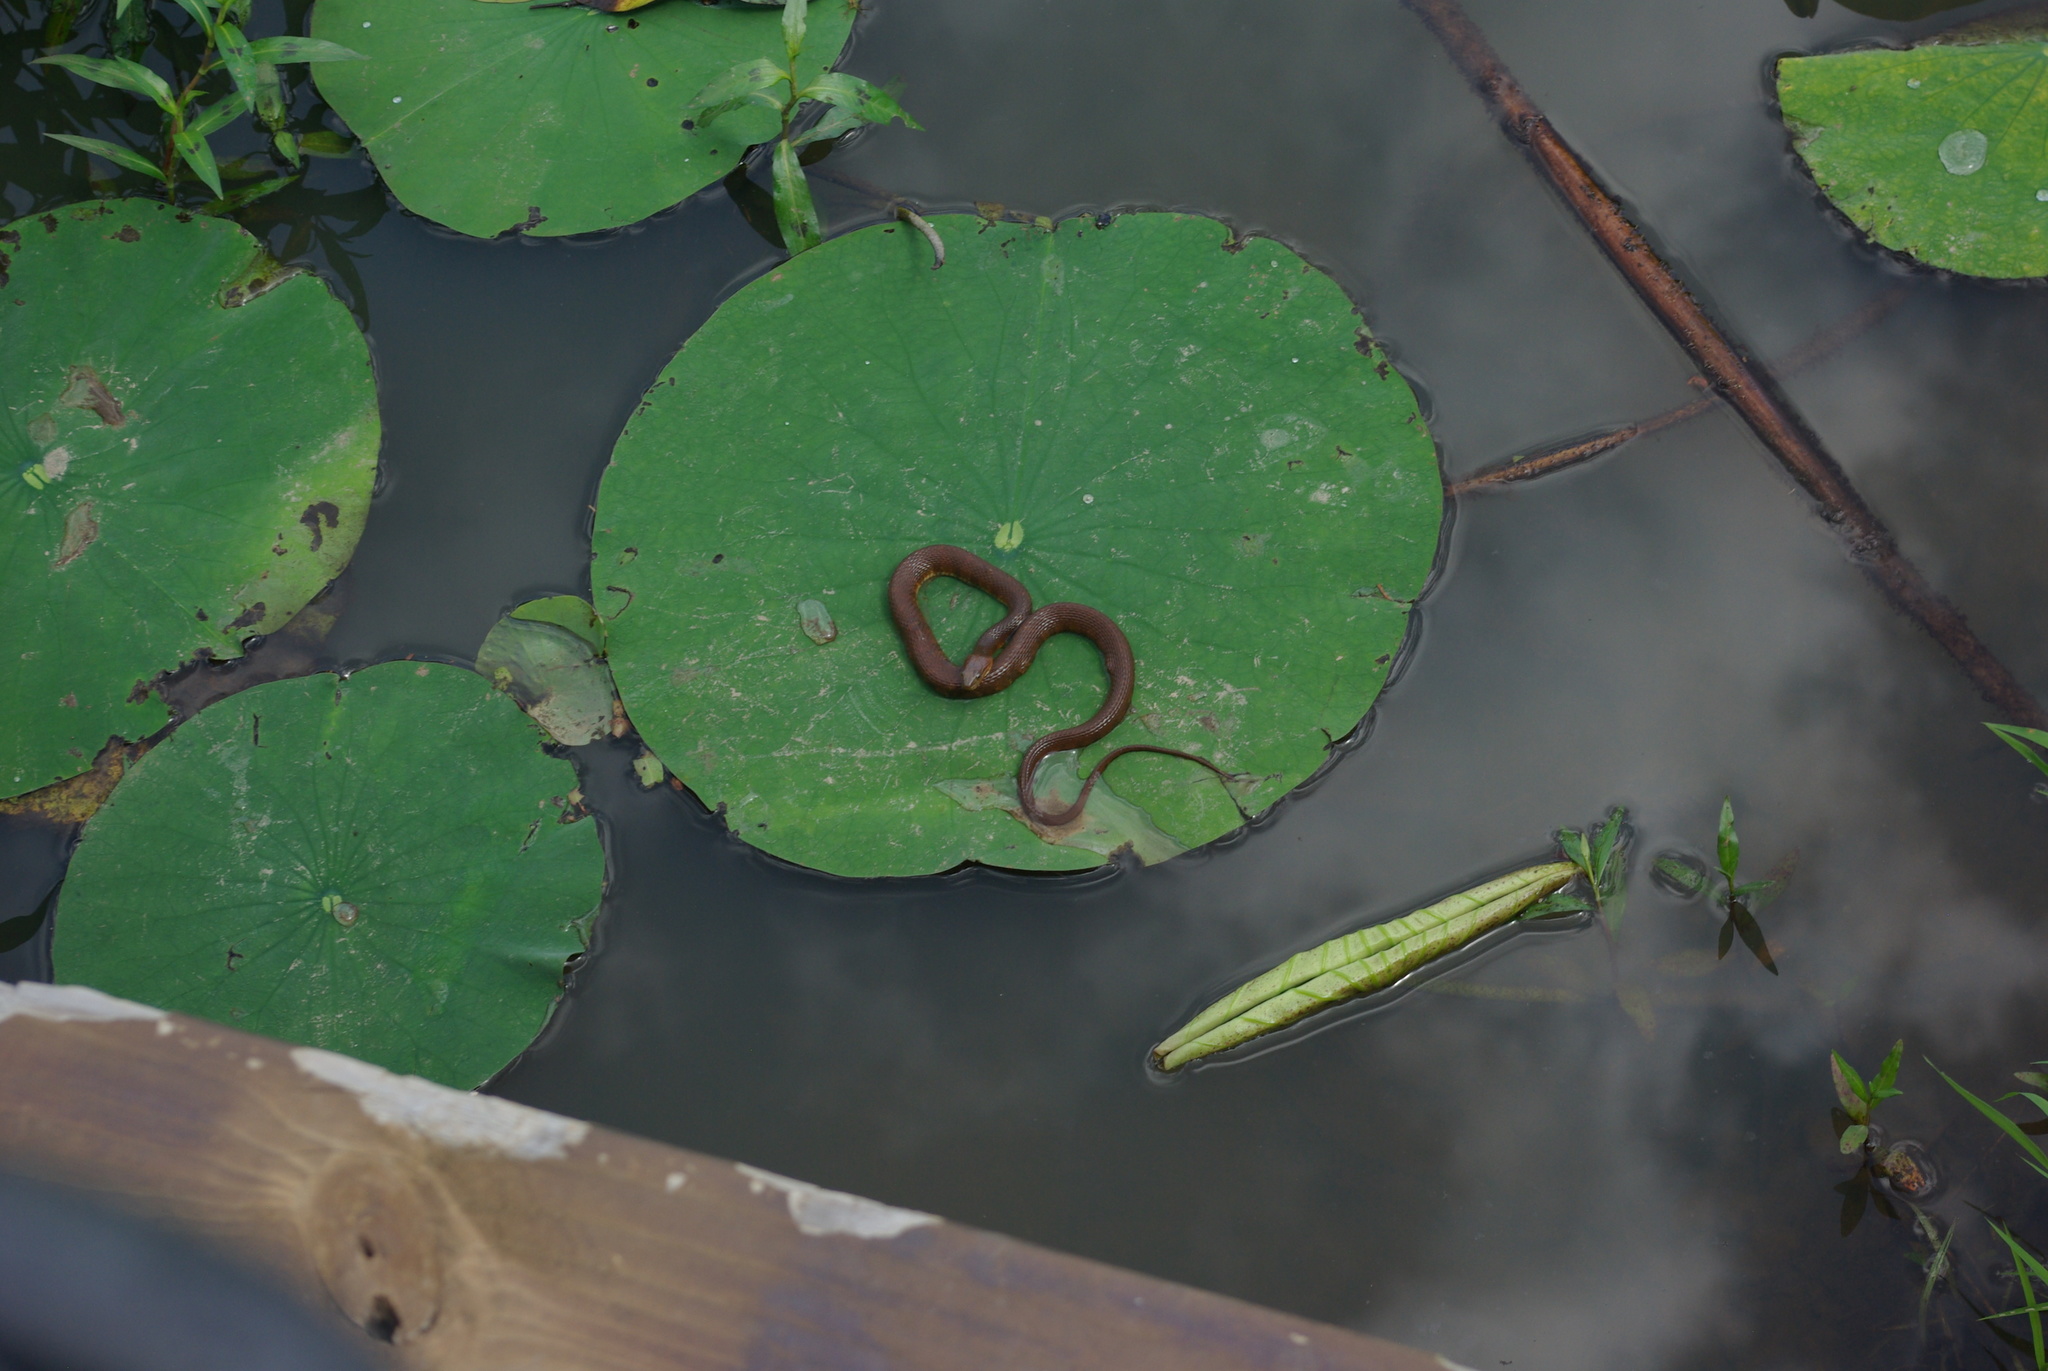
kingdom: Animalia
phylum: Chordata
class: Squamata
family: Colubridae
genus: Nerodia
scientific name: Nerodia sipedon
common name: Northern water snake
